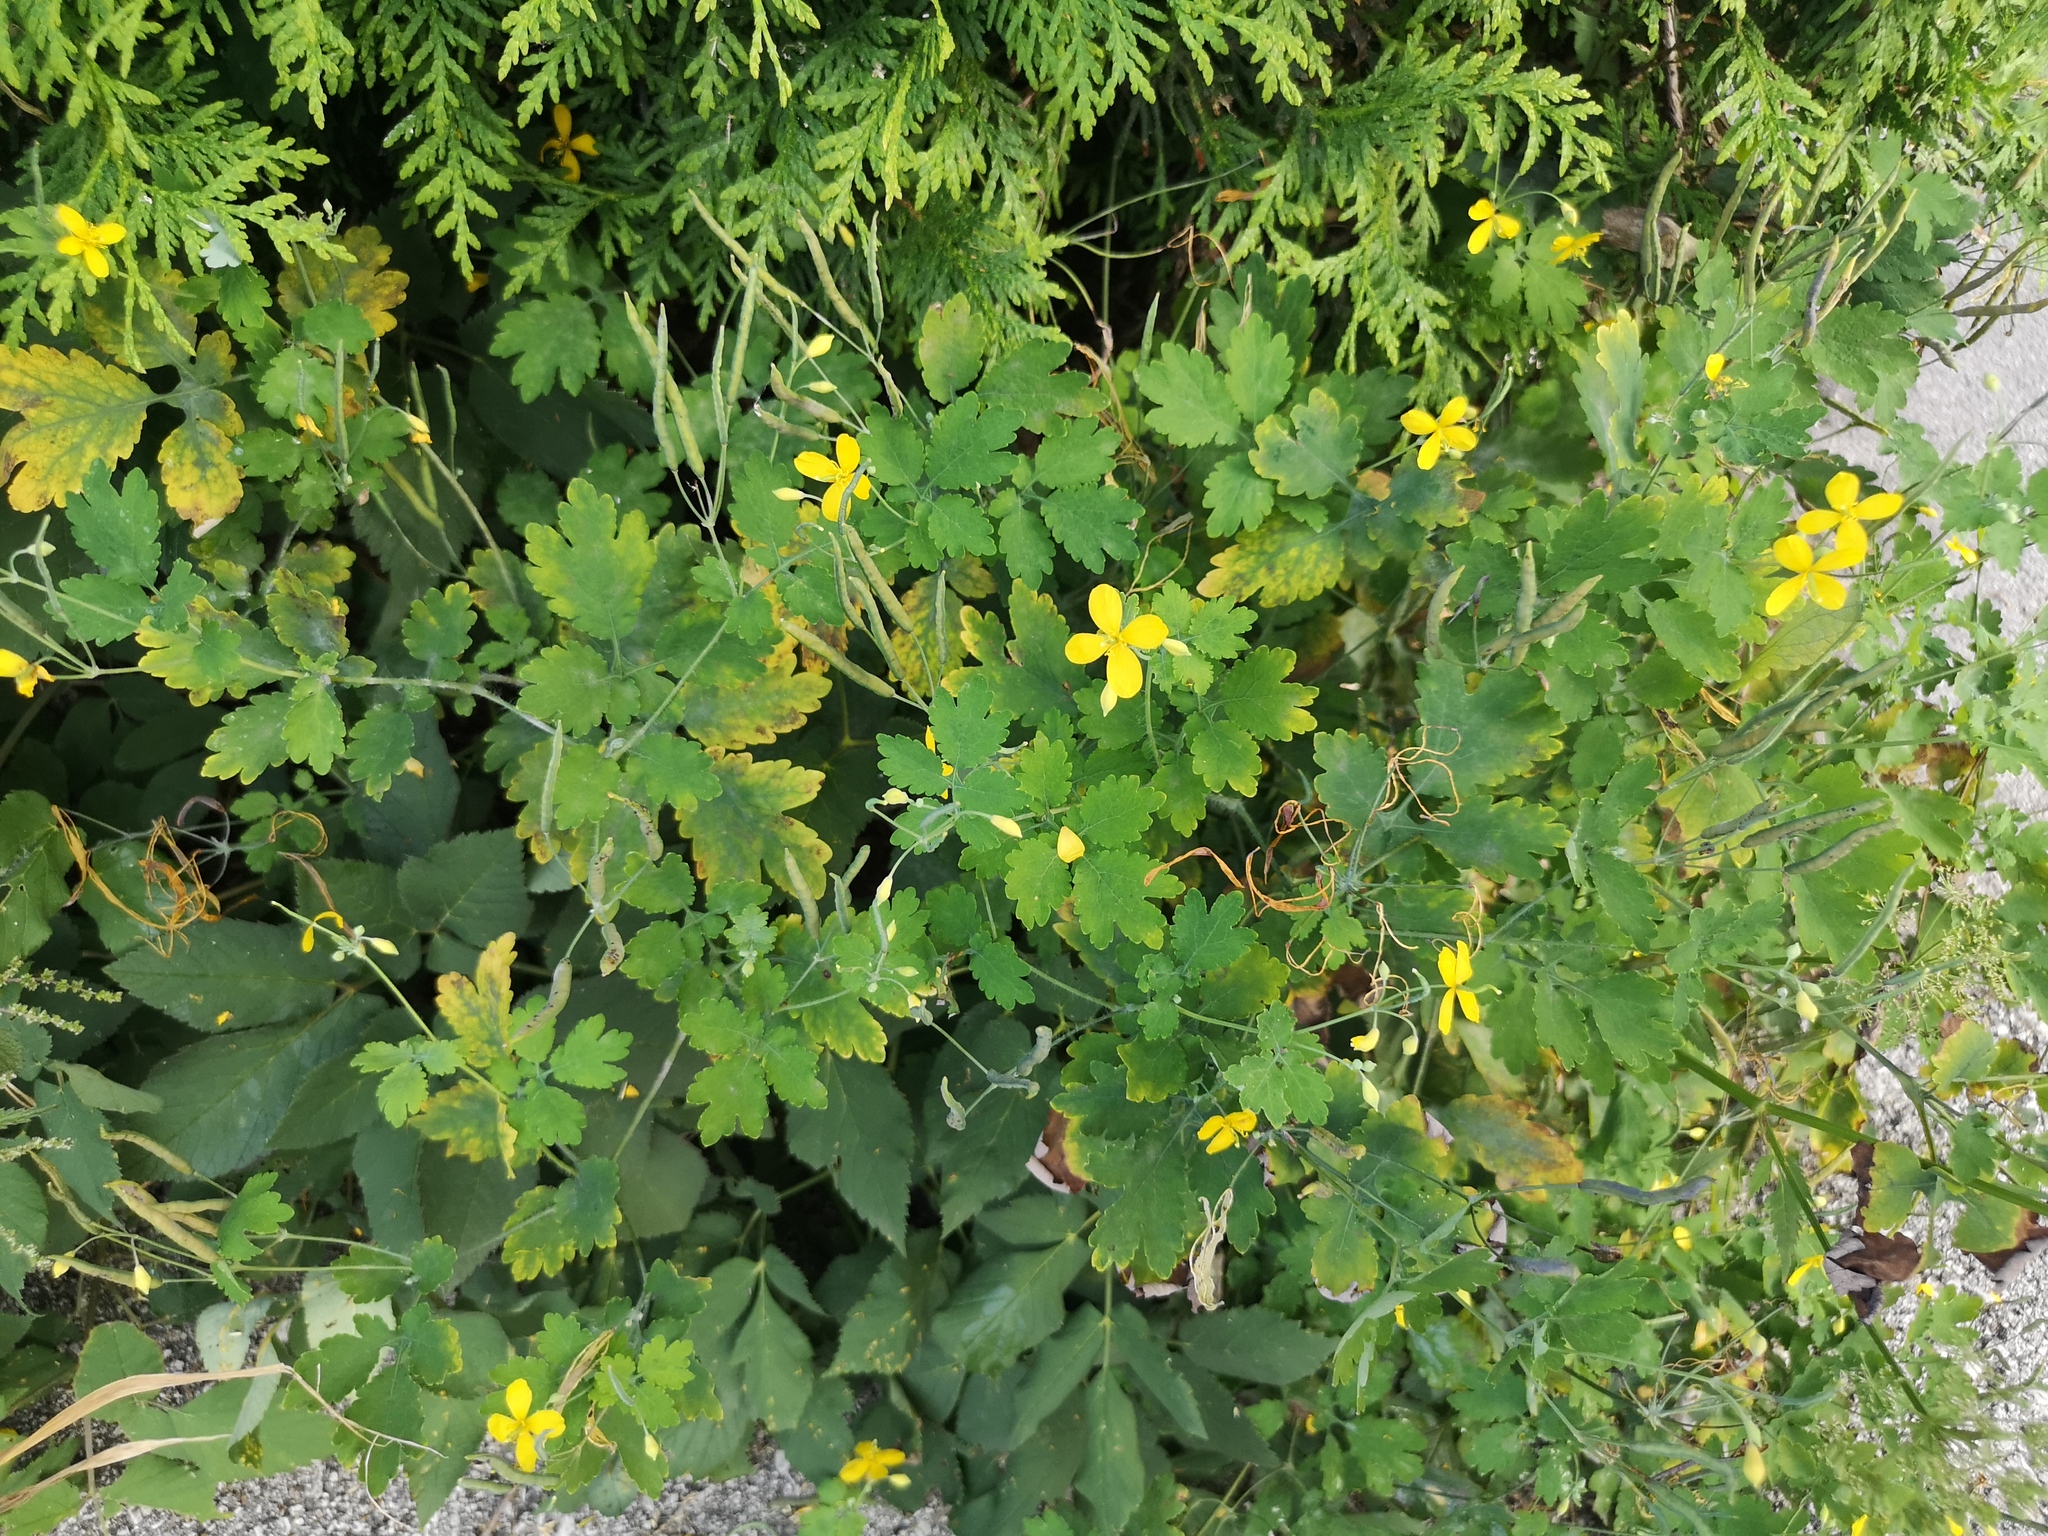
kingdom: Plantae
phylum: Tracheophyta
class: Magnoliopsida
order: Ranunculales
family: Papaveraceae
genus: Chelidonium
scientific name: Chelidonium majus
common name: Greater celandine
